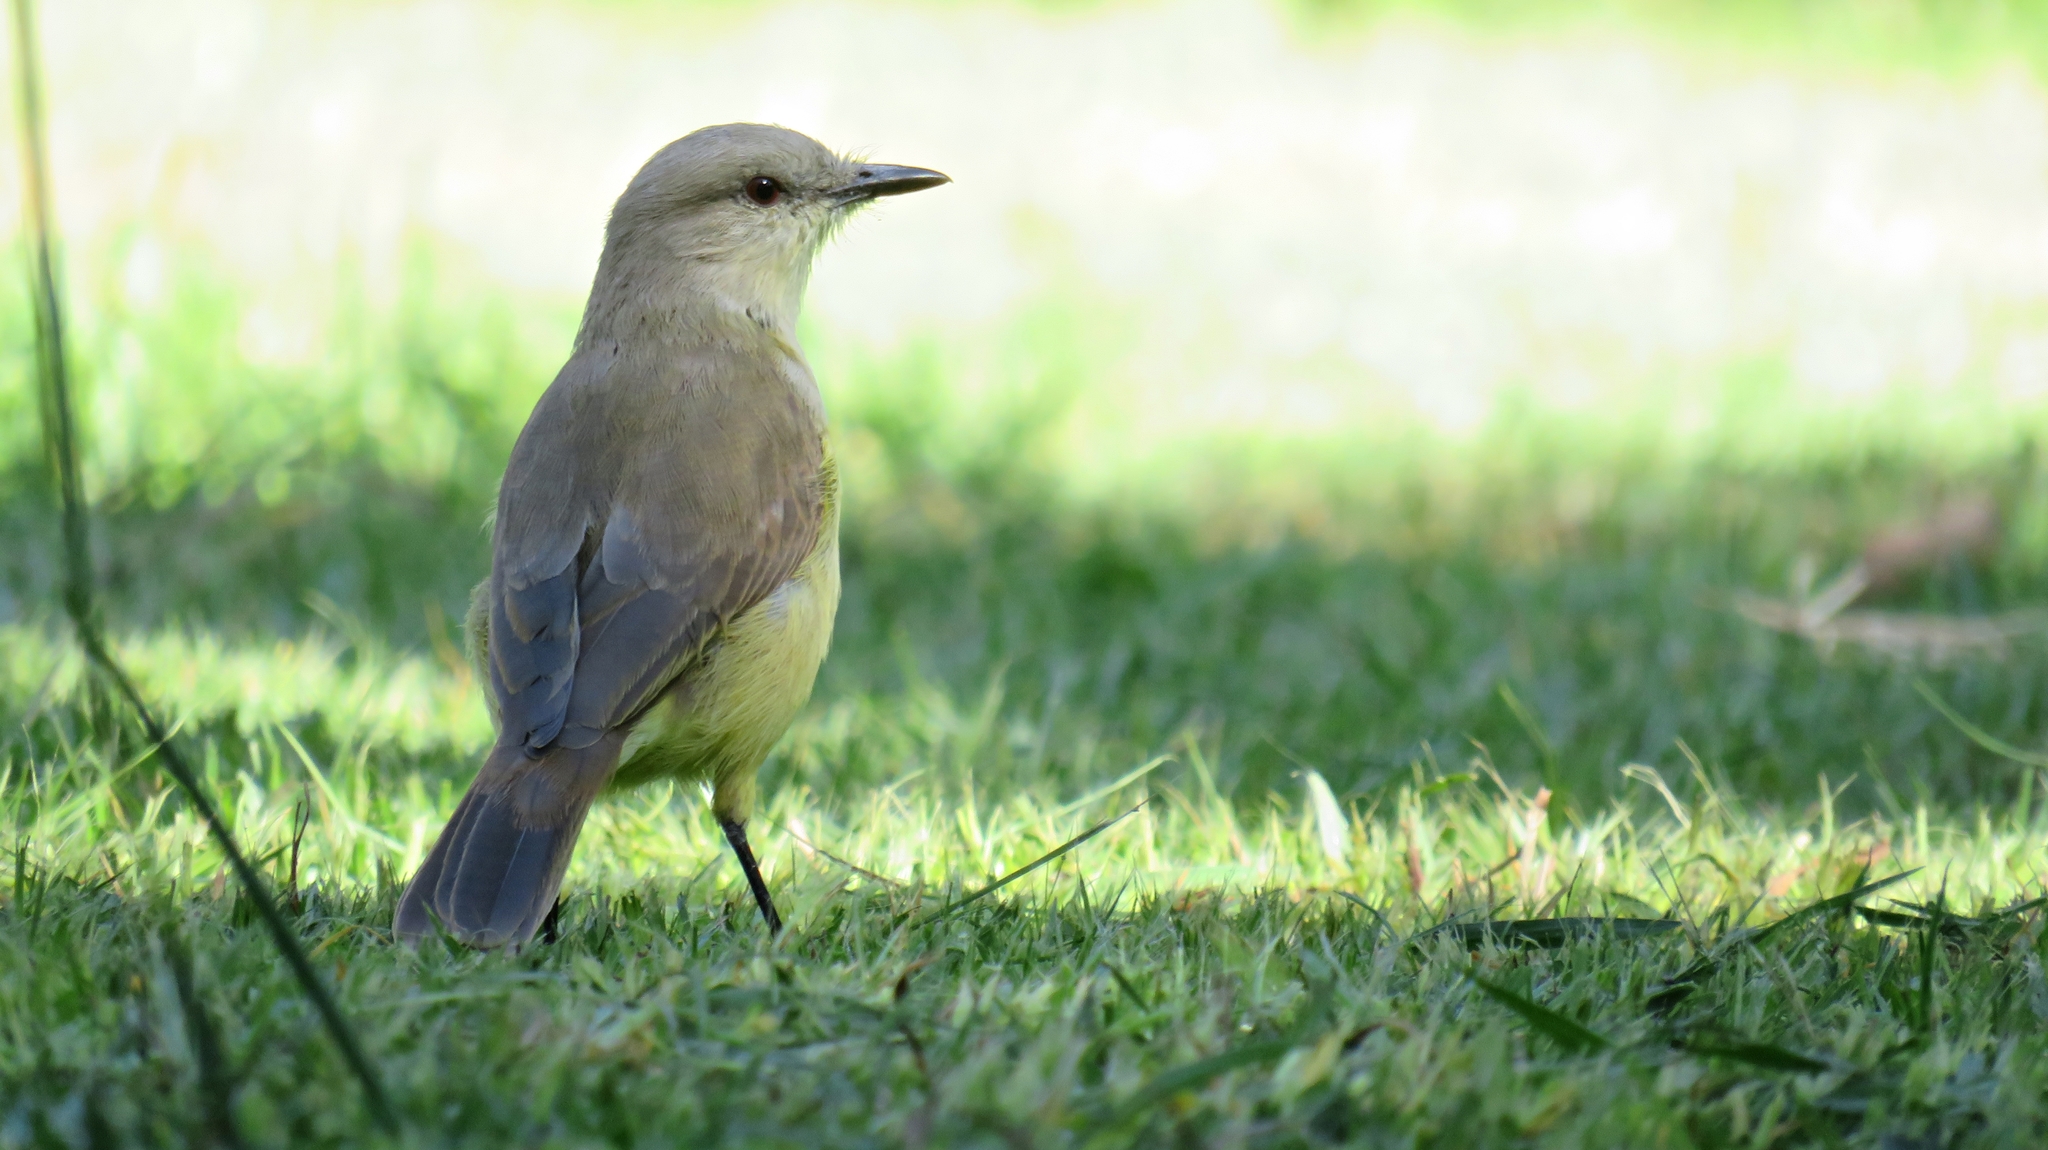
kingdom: Animalia
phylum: Chordata
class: Aves
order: Passeriformes
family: Tyrannidae
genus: Machetornis
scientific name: Machetornis rixosa
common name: Cattle tyrant
